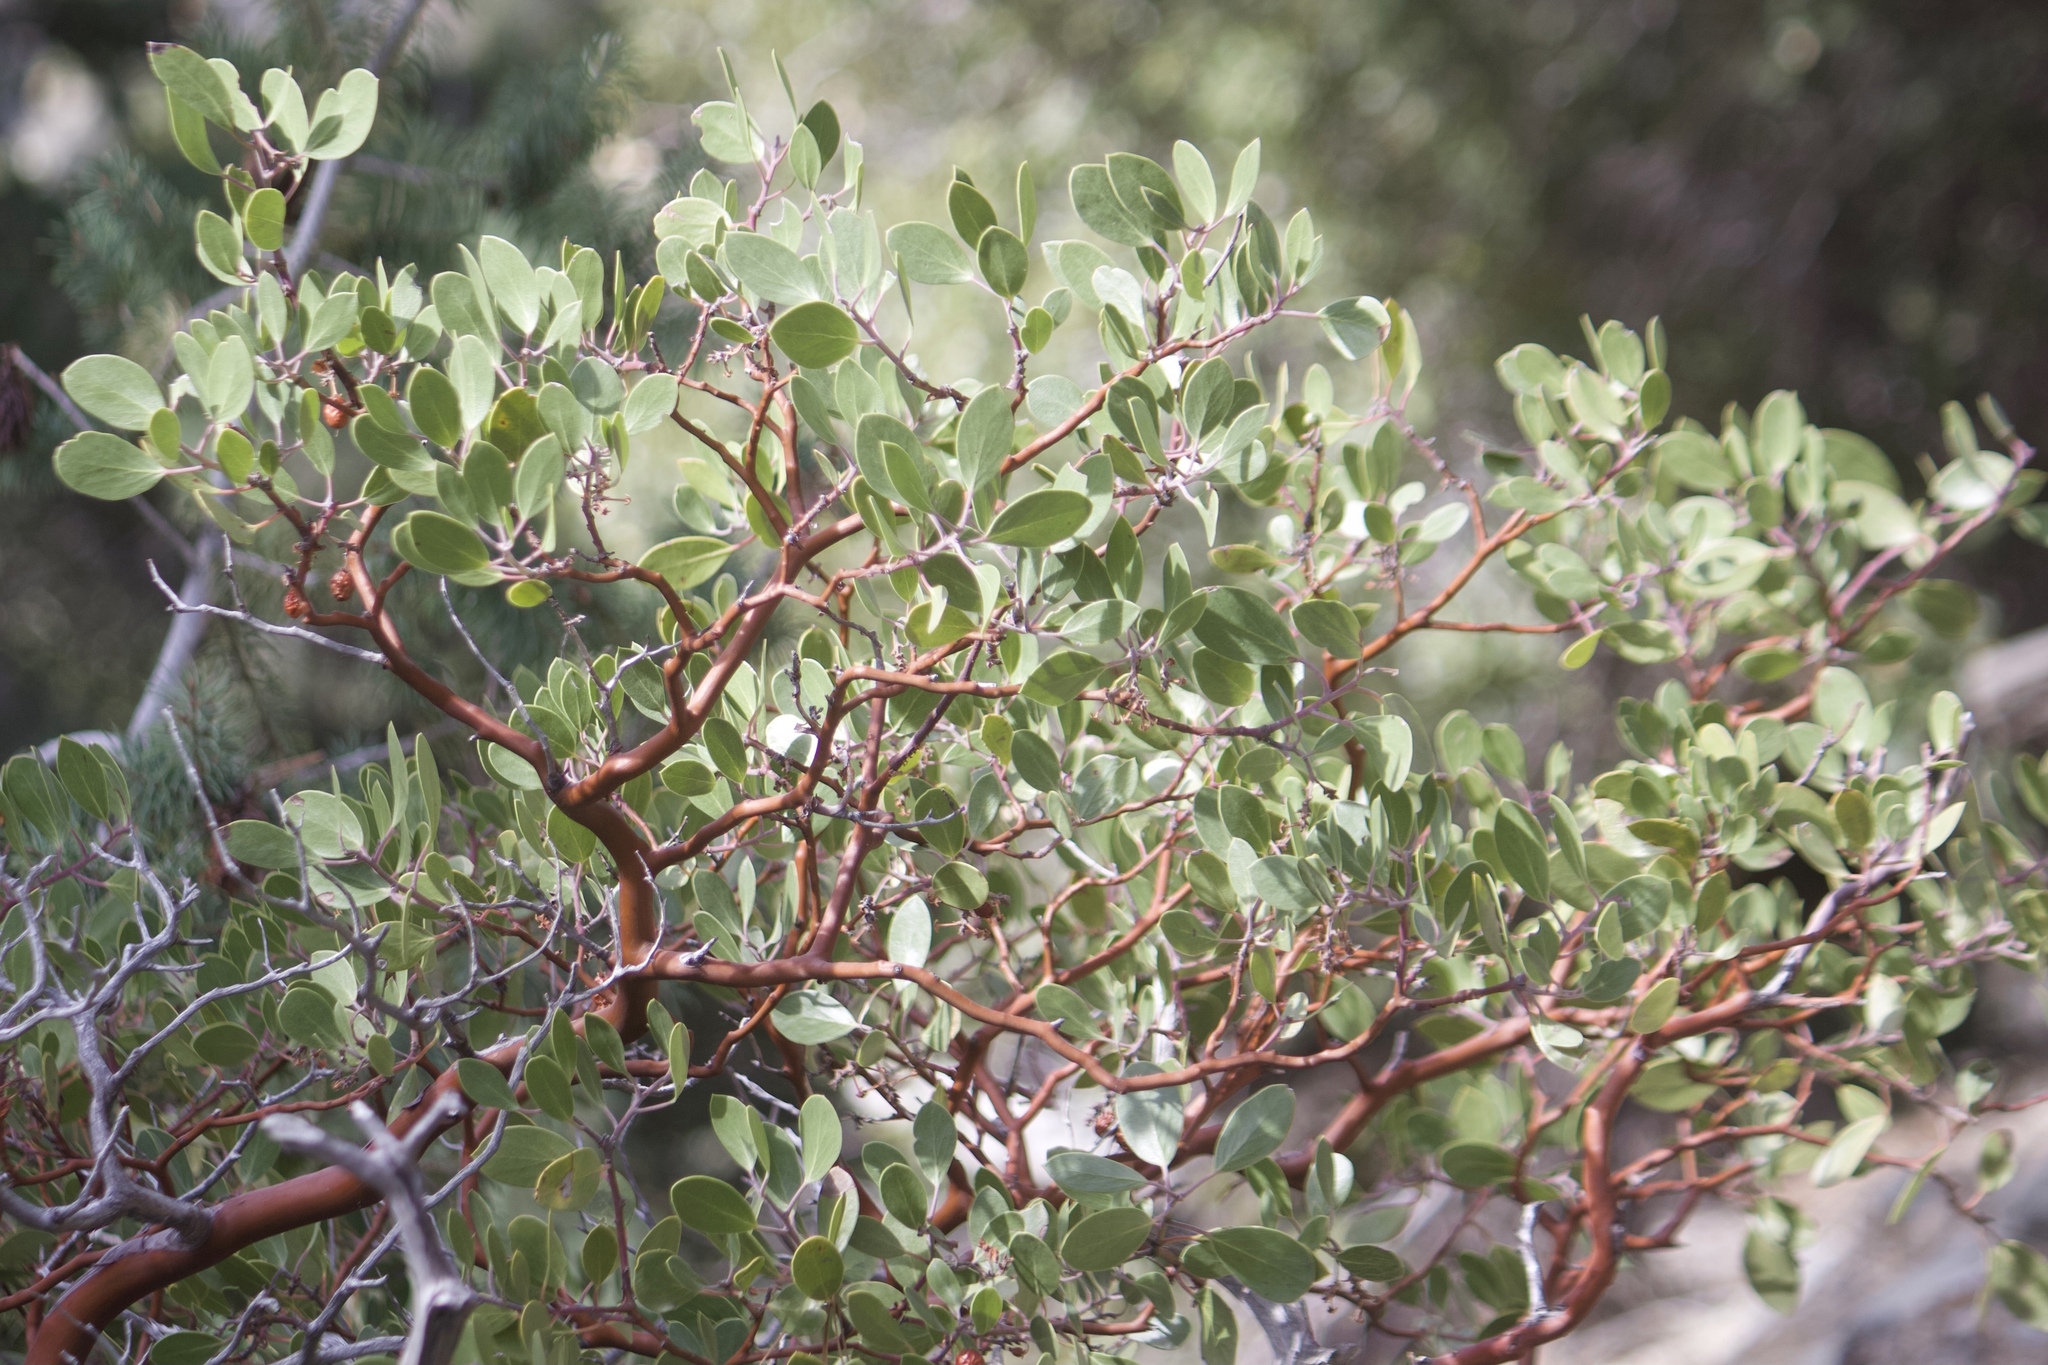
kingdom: Plantae
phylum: Tracheophyta
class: Magnoliopsida
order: Ericales
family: Ericaceae
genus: Arctostaphylos
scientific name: Arctostaphylos parryana
